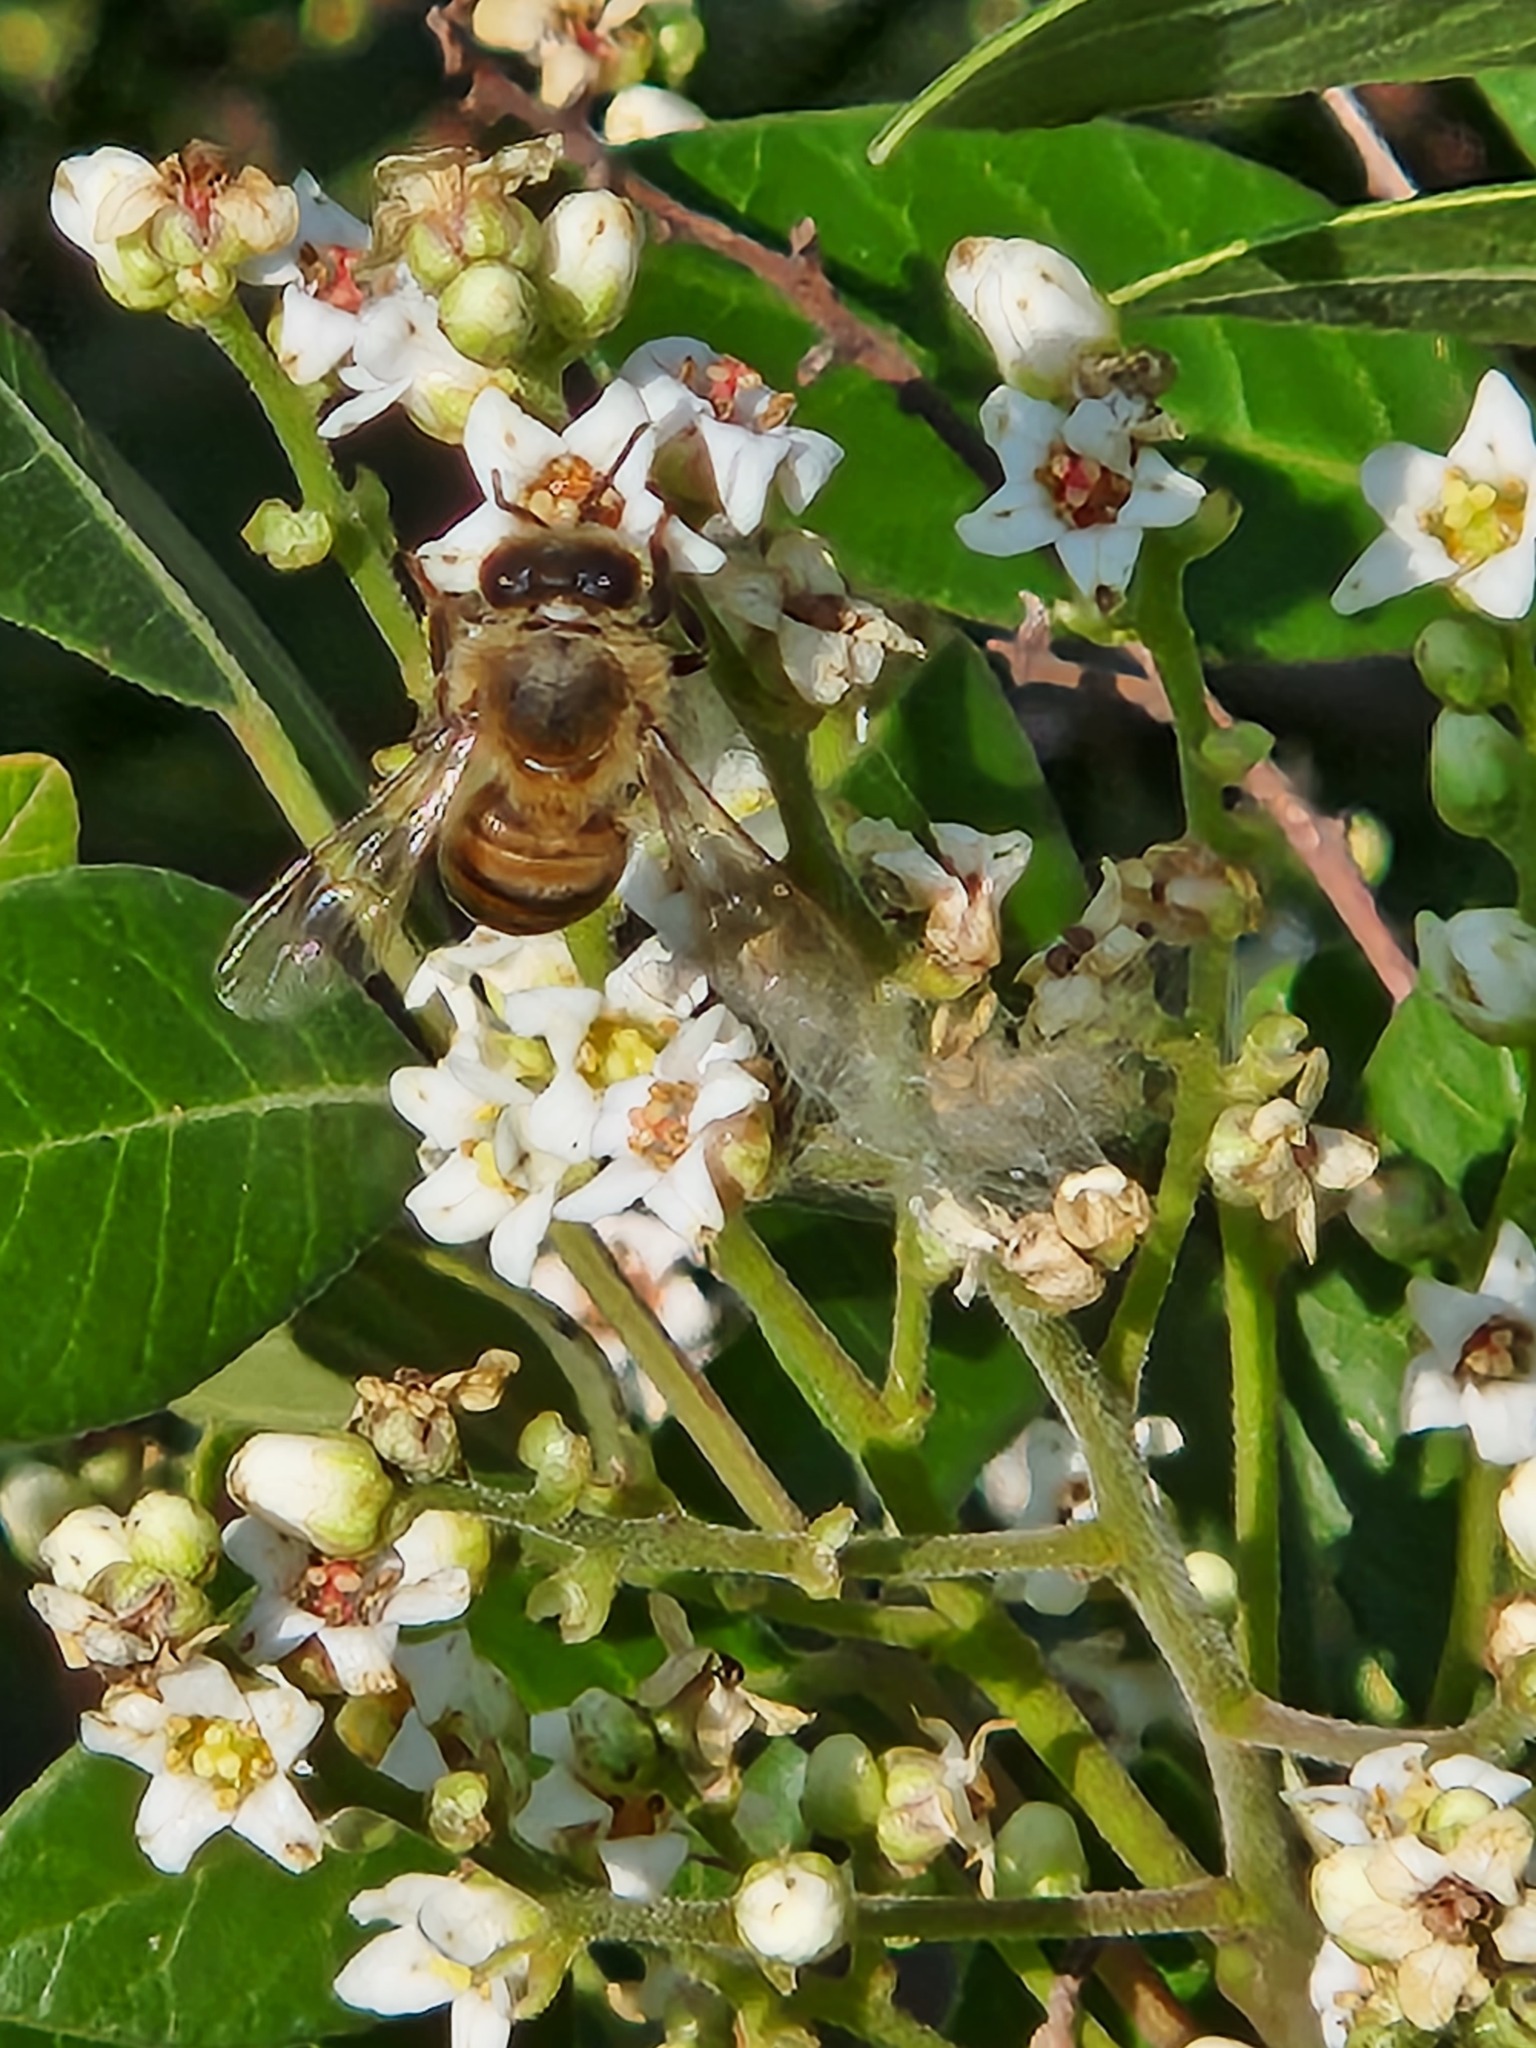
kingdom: Animalia
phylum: Arthropoda
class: Insecta
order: Hymenoptera
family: Apidae
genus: Apis
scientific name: Apis mellifera
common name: Honey bee
